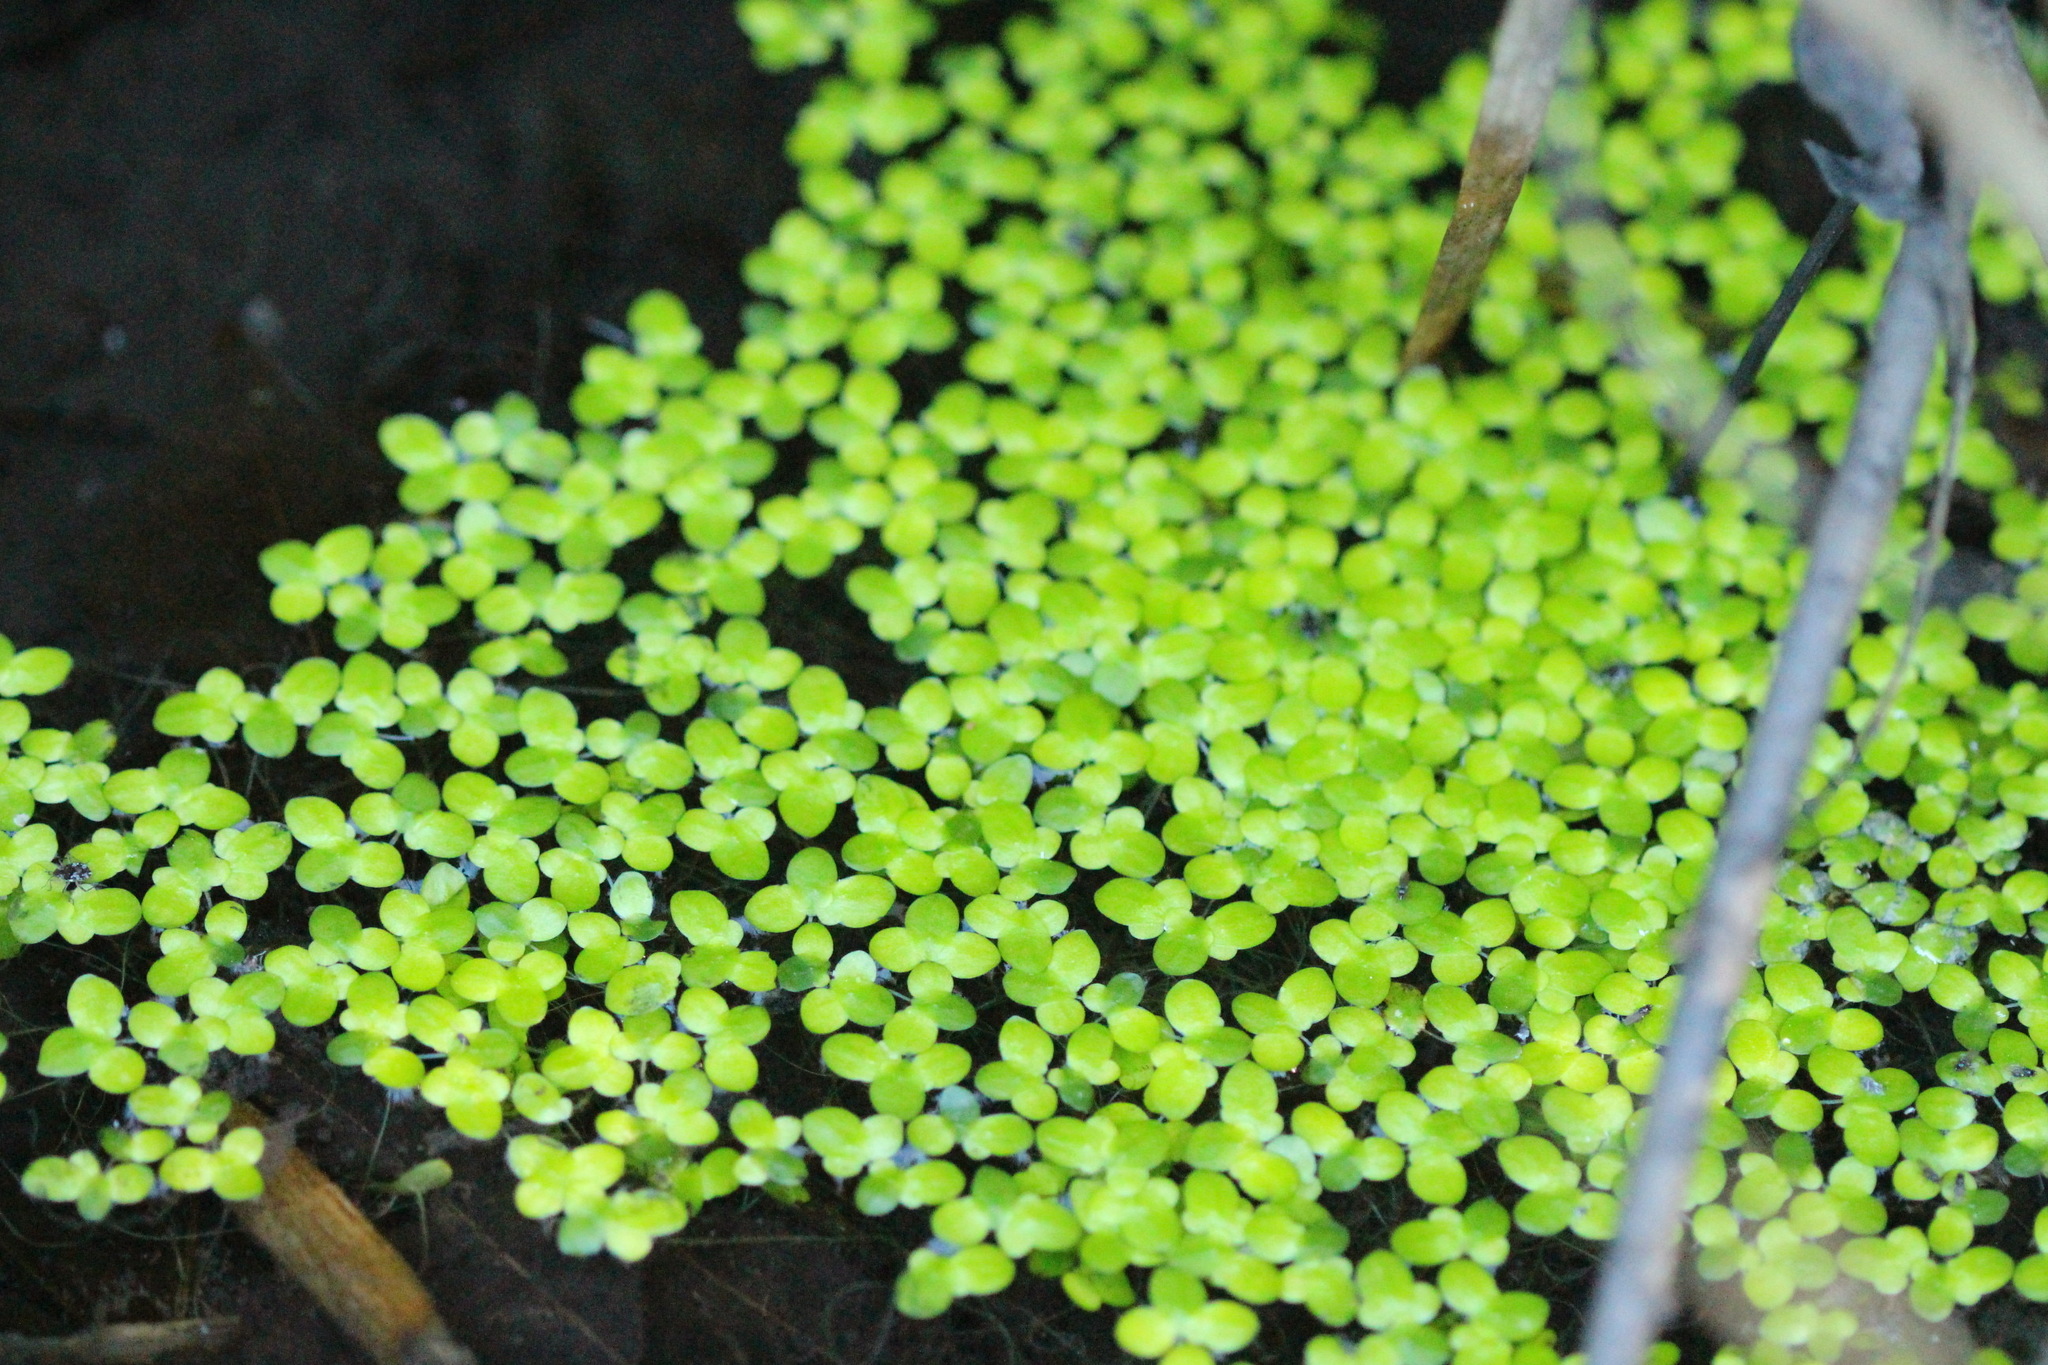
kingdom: Plantae
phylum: Tracheophyta
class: Liliopsida
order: Alismatales
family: Araceae
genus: Lemna
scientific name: Lemna minor
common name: Common duckweed
